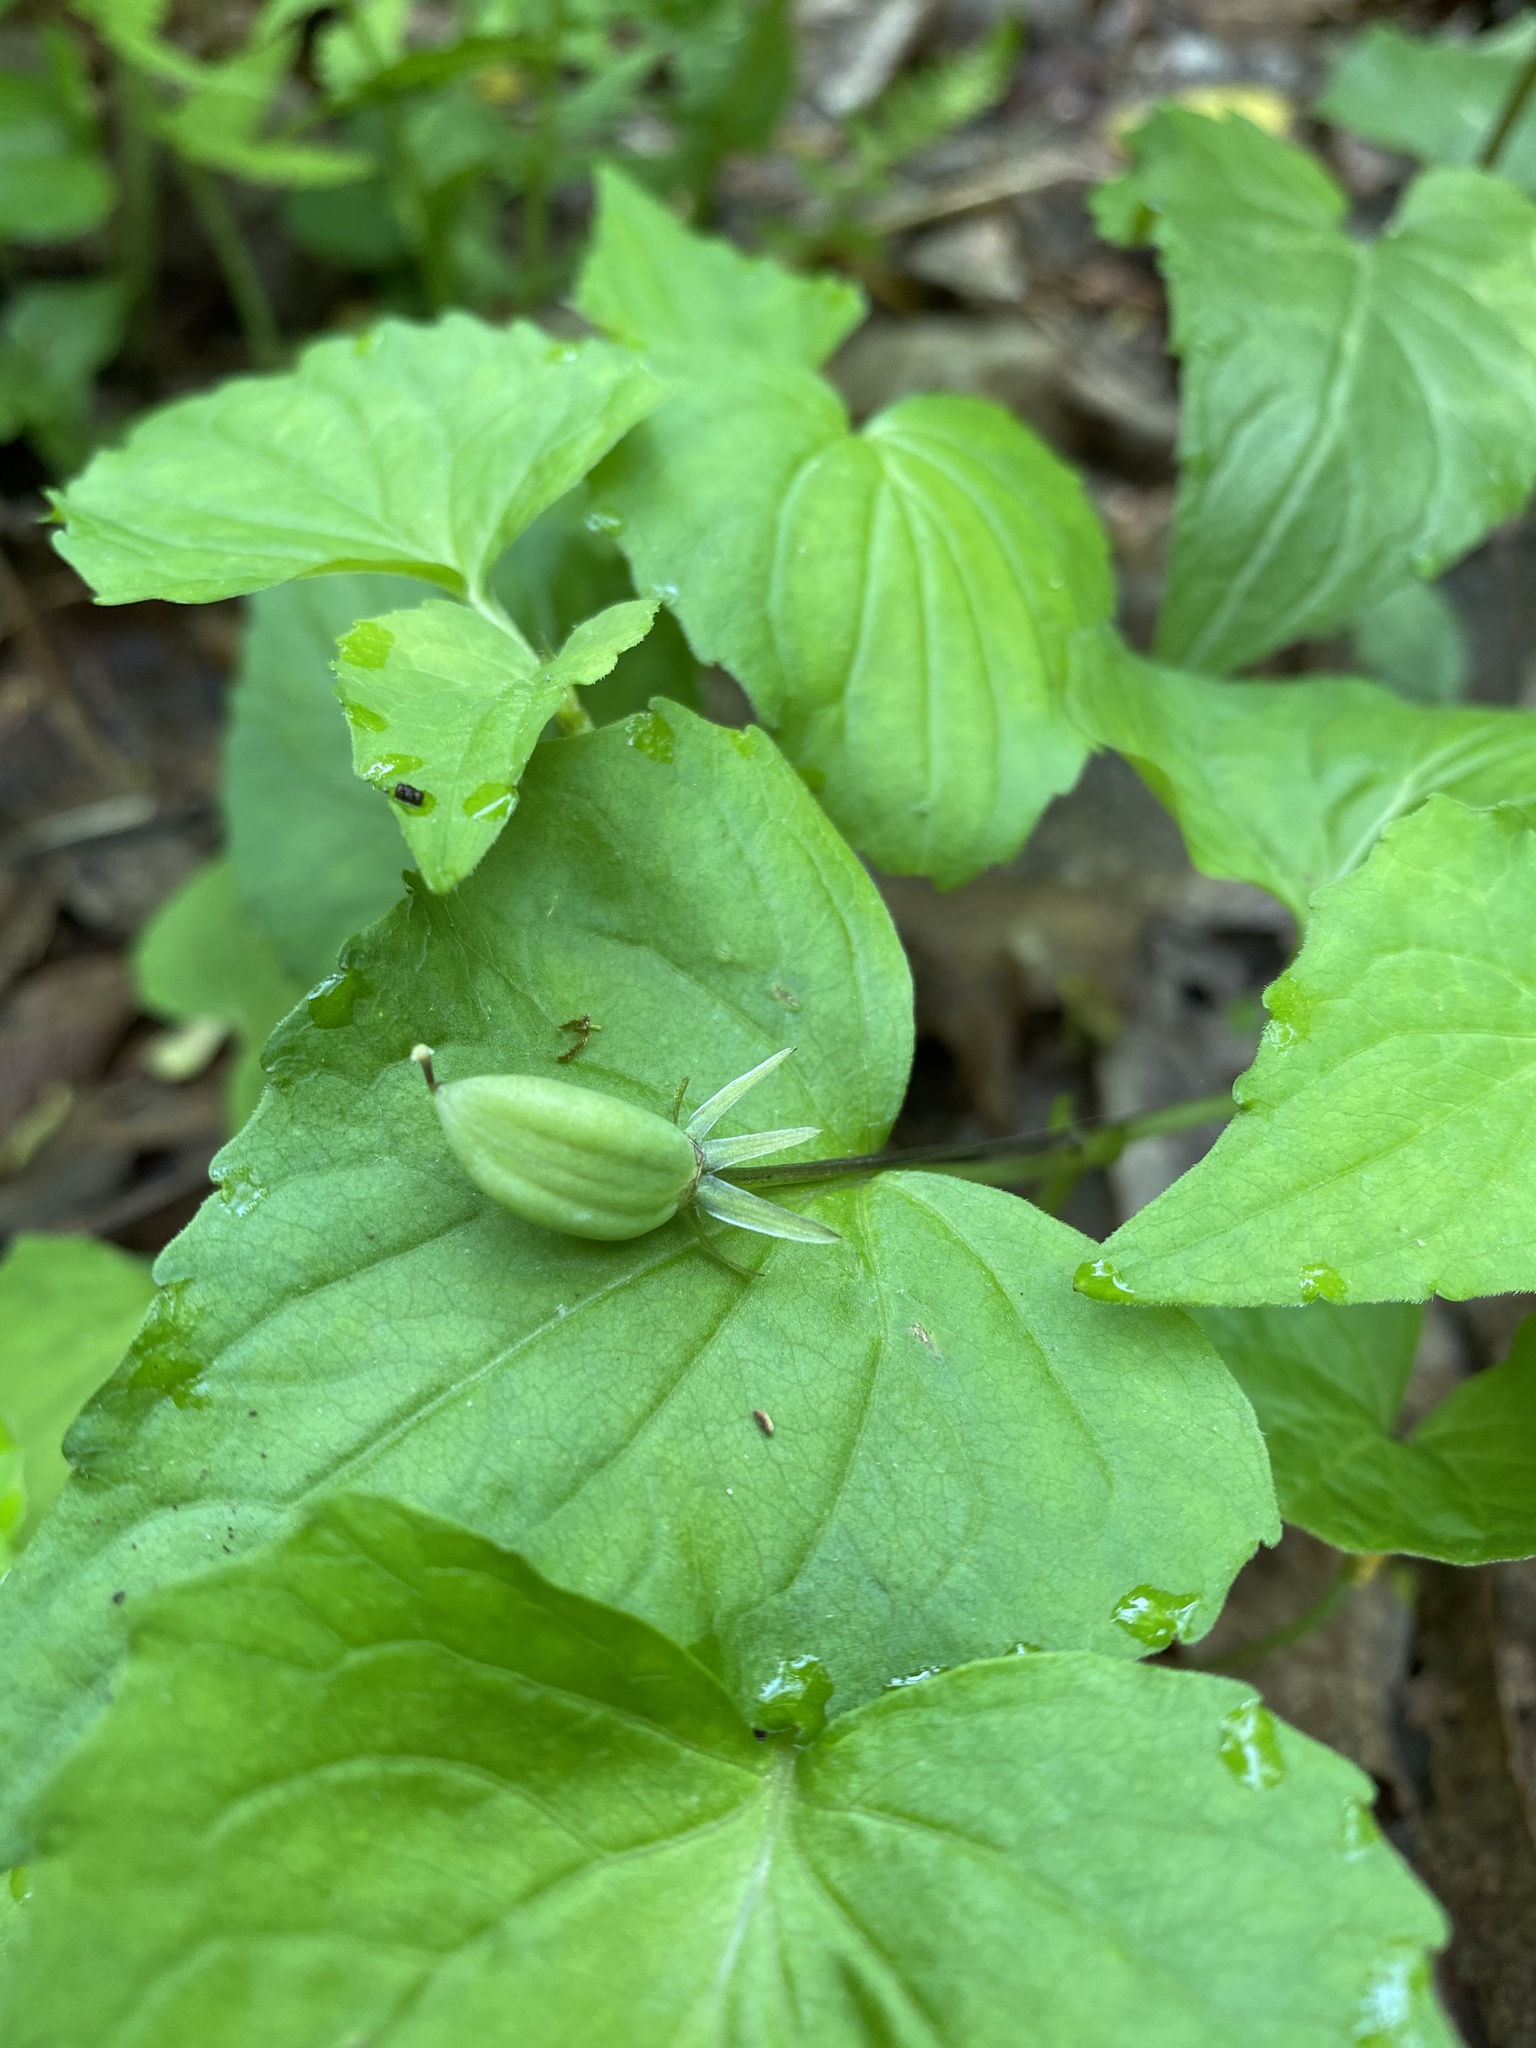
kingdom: Plantae
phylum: Tracheophyta
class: Magnoliopsida
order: Malpighiales
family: Violaceae
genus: Viola
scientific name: Viola eriocarpa
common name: Smooth yellow violet
